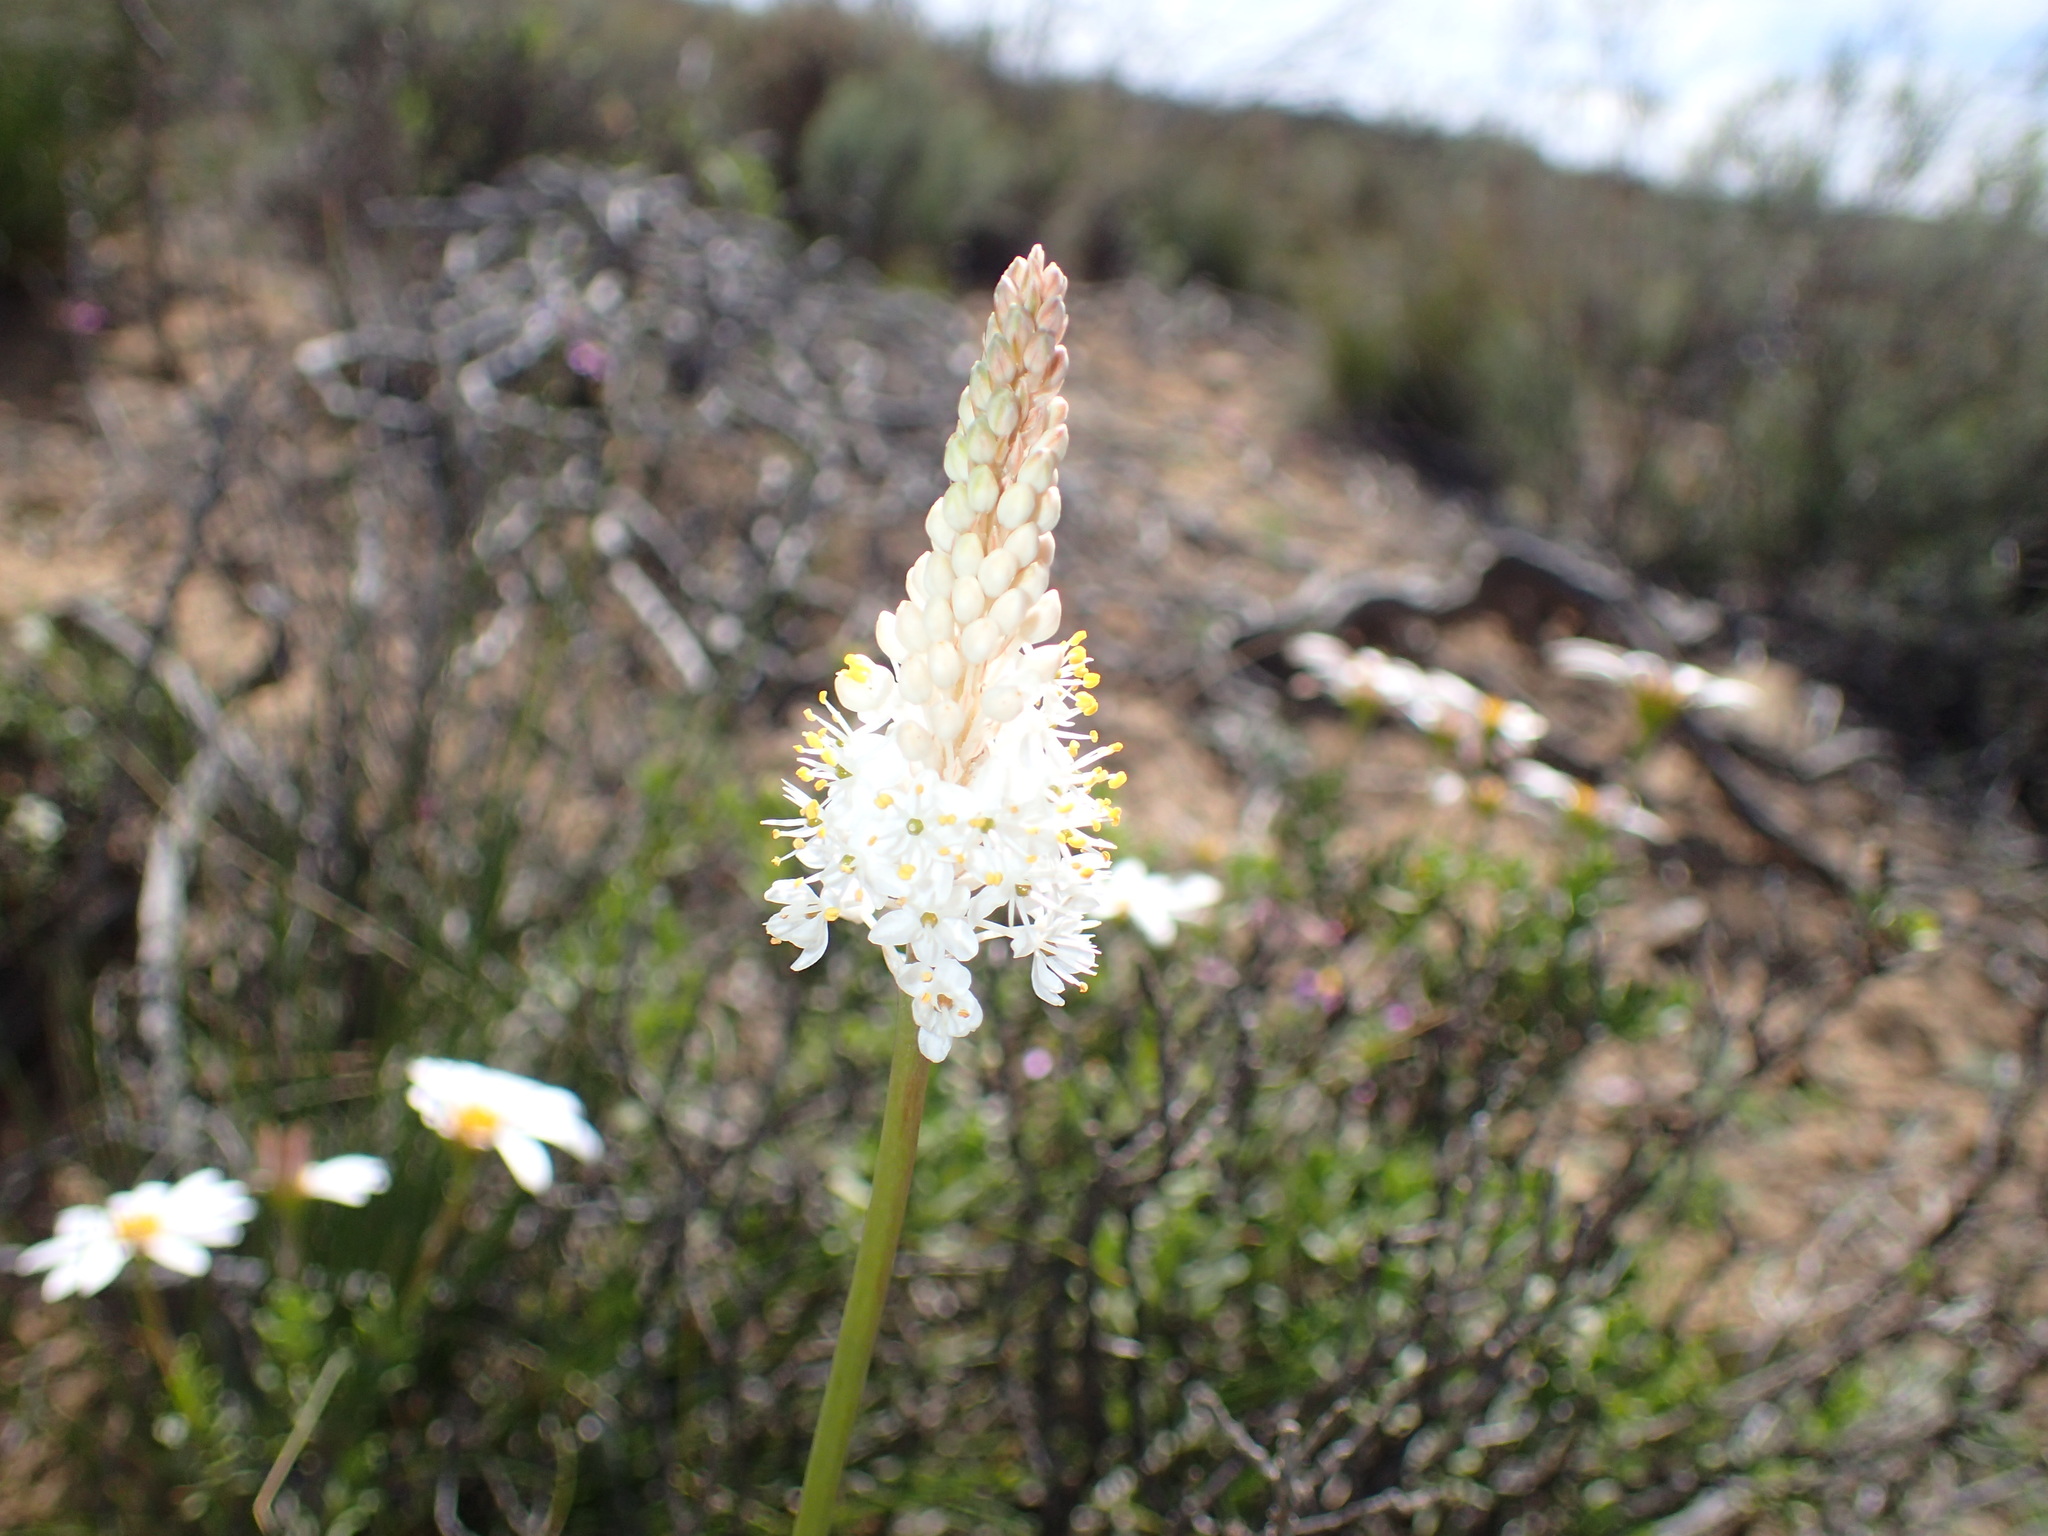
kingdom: Plantae
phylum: Tracheophyta
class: Liliopsida
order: Asparagales
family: Asphodelaceae
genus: Bulbinella
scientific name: Bulbinella cauda-felis
